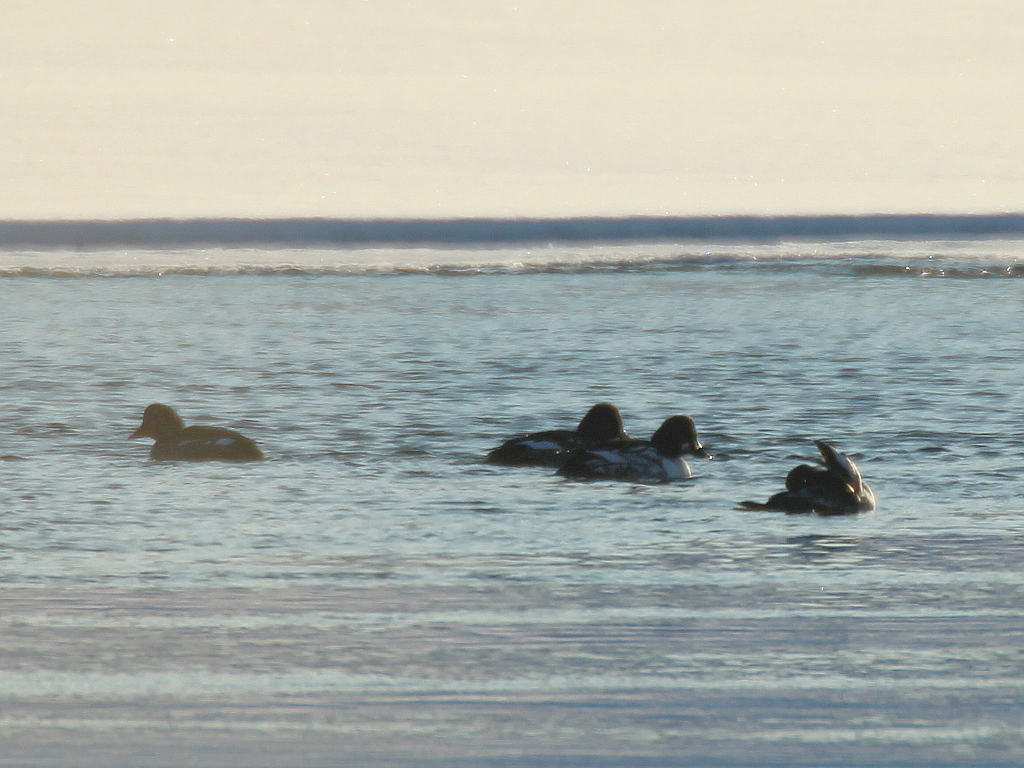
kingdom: Animalia
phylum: Chordata
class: Aves
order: Anseriformes
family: Anatidae
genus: Bucephala
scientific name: Bucephala clangula
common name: Common goldeneye
